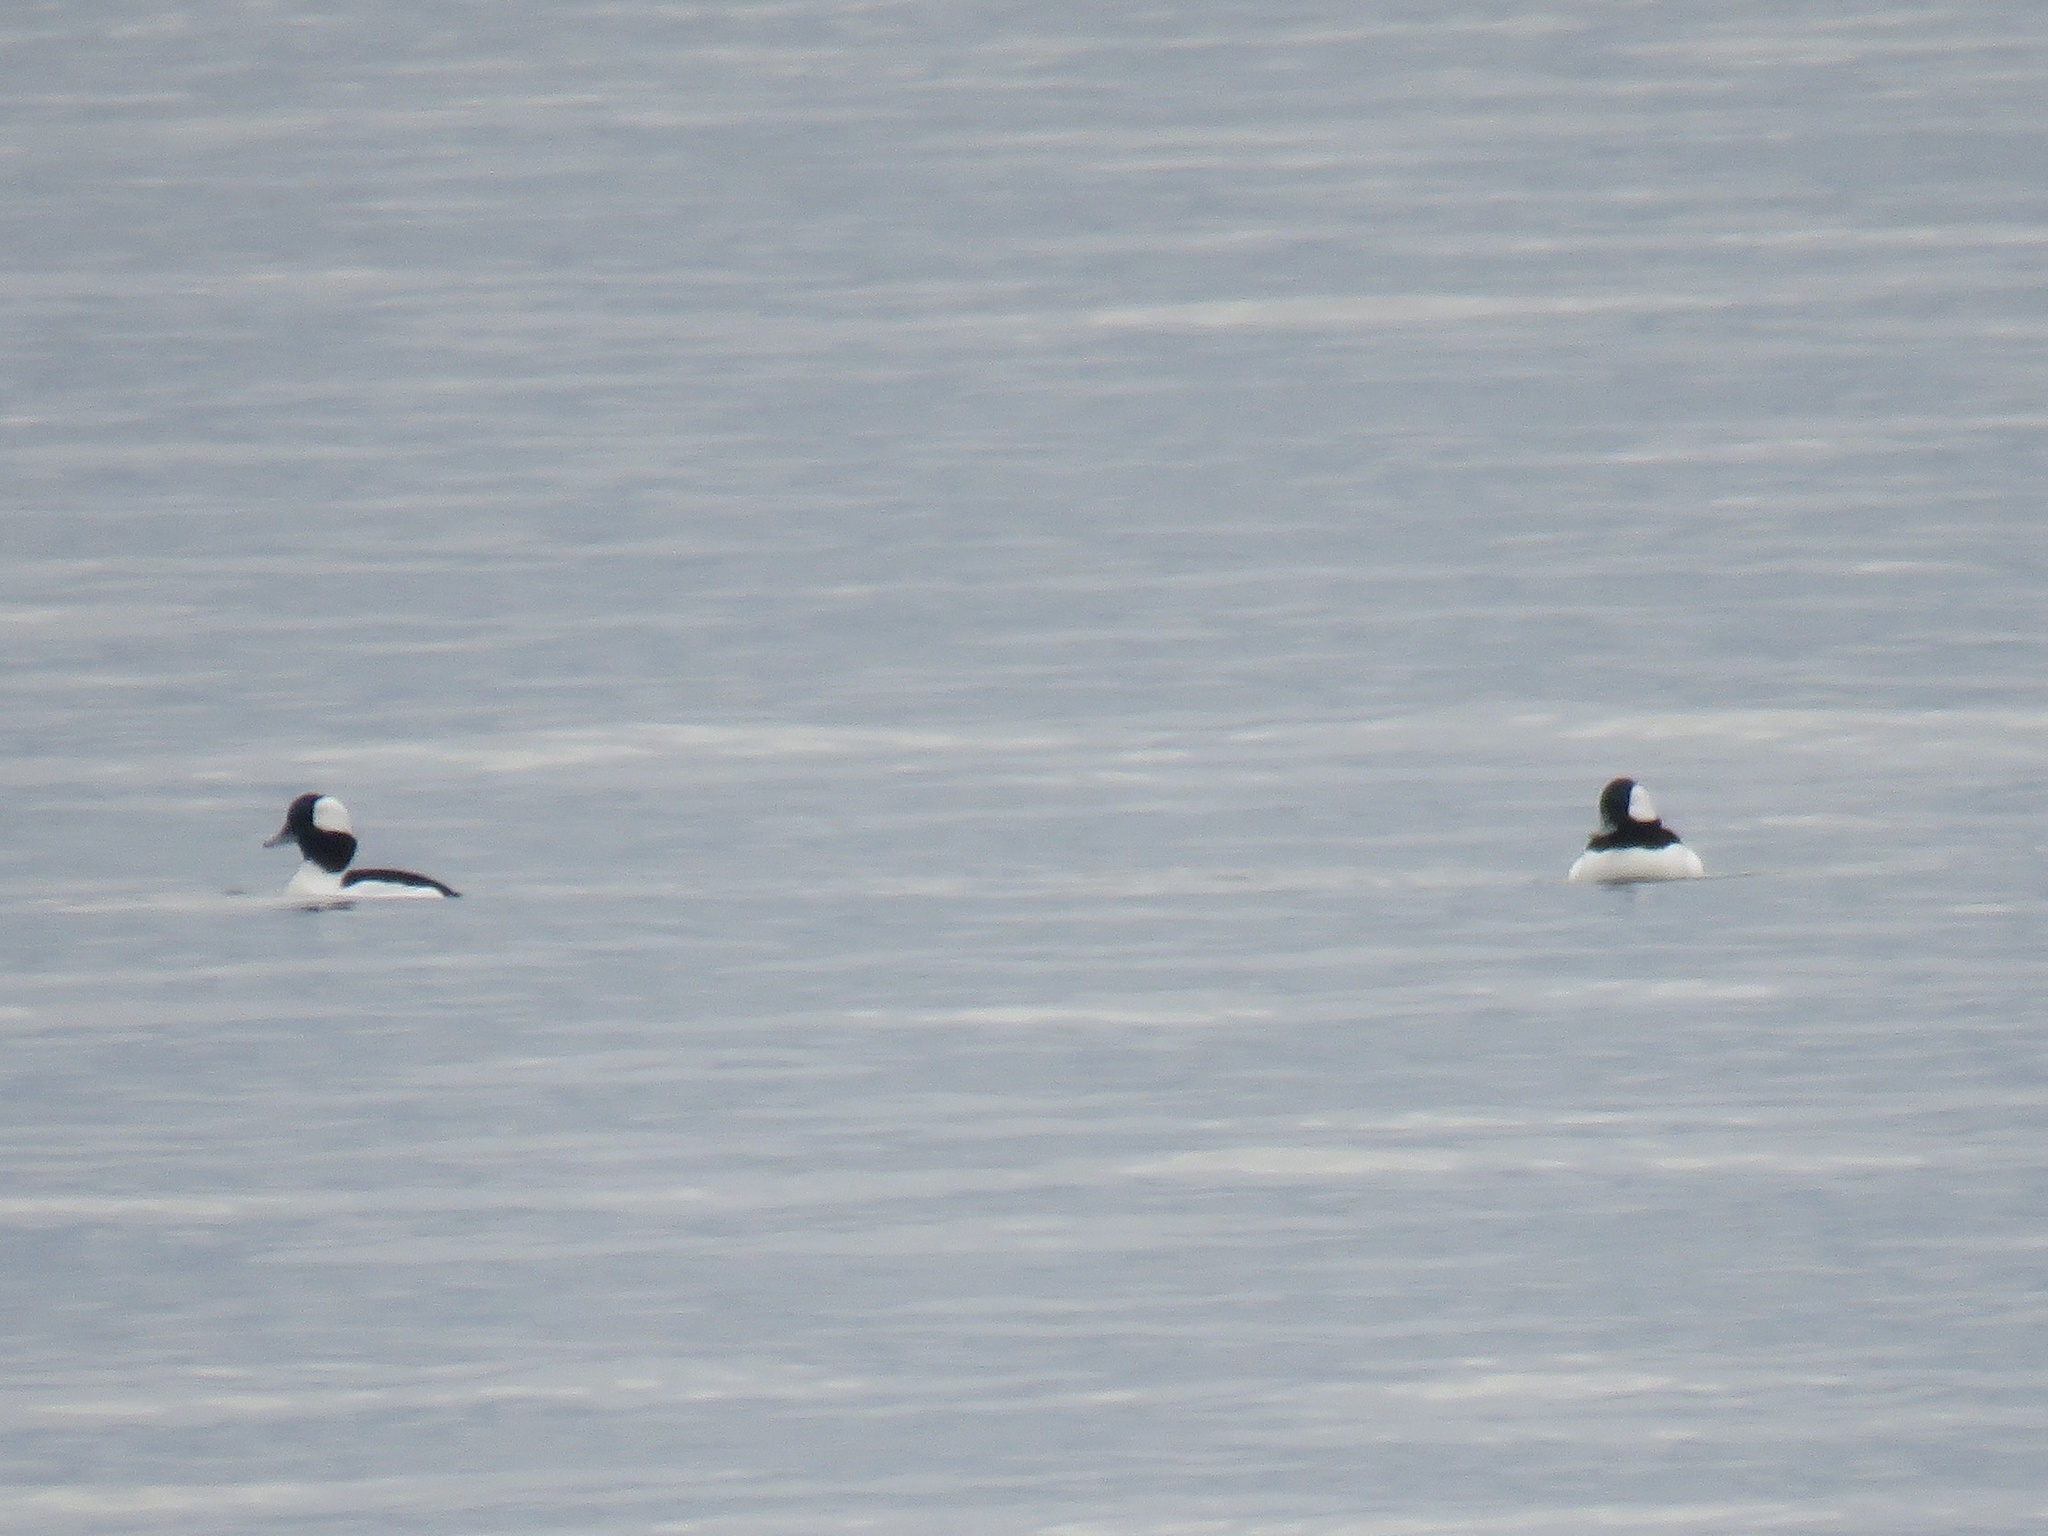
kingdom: Animalia
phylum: Chordata
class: Aves
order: Anseriformes
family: Anatidae
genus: Bucephala
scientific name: Bucephala albeola
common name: Bufflehead
